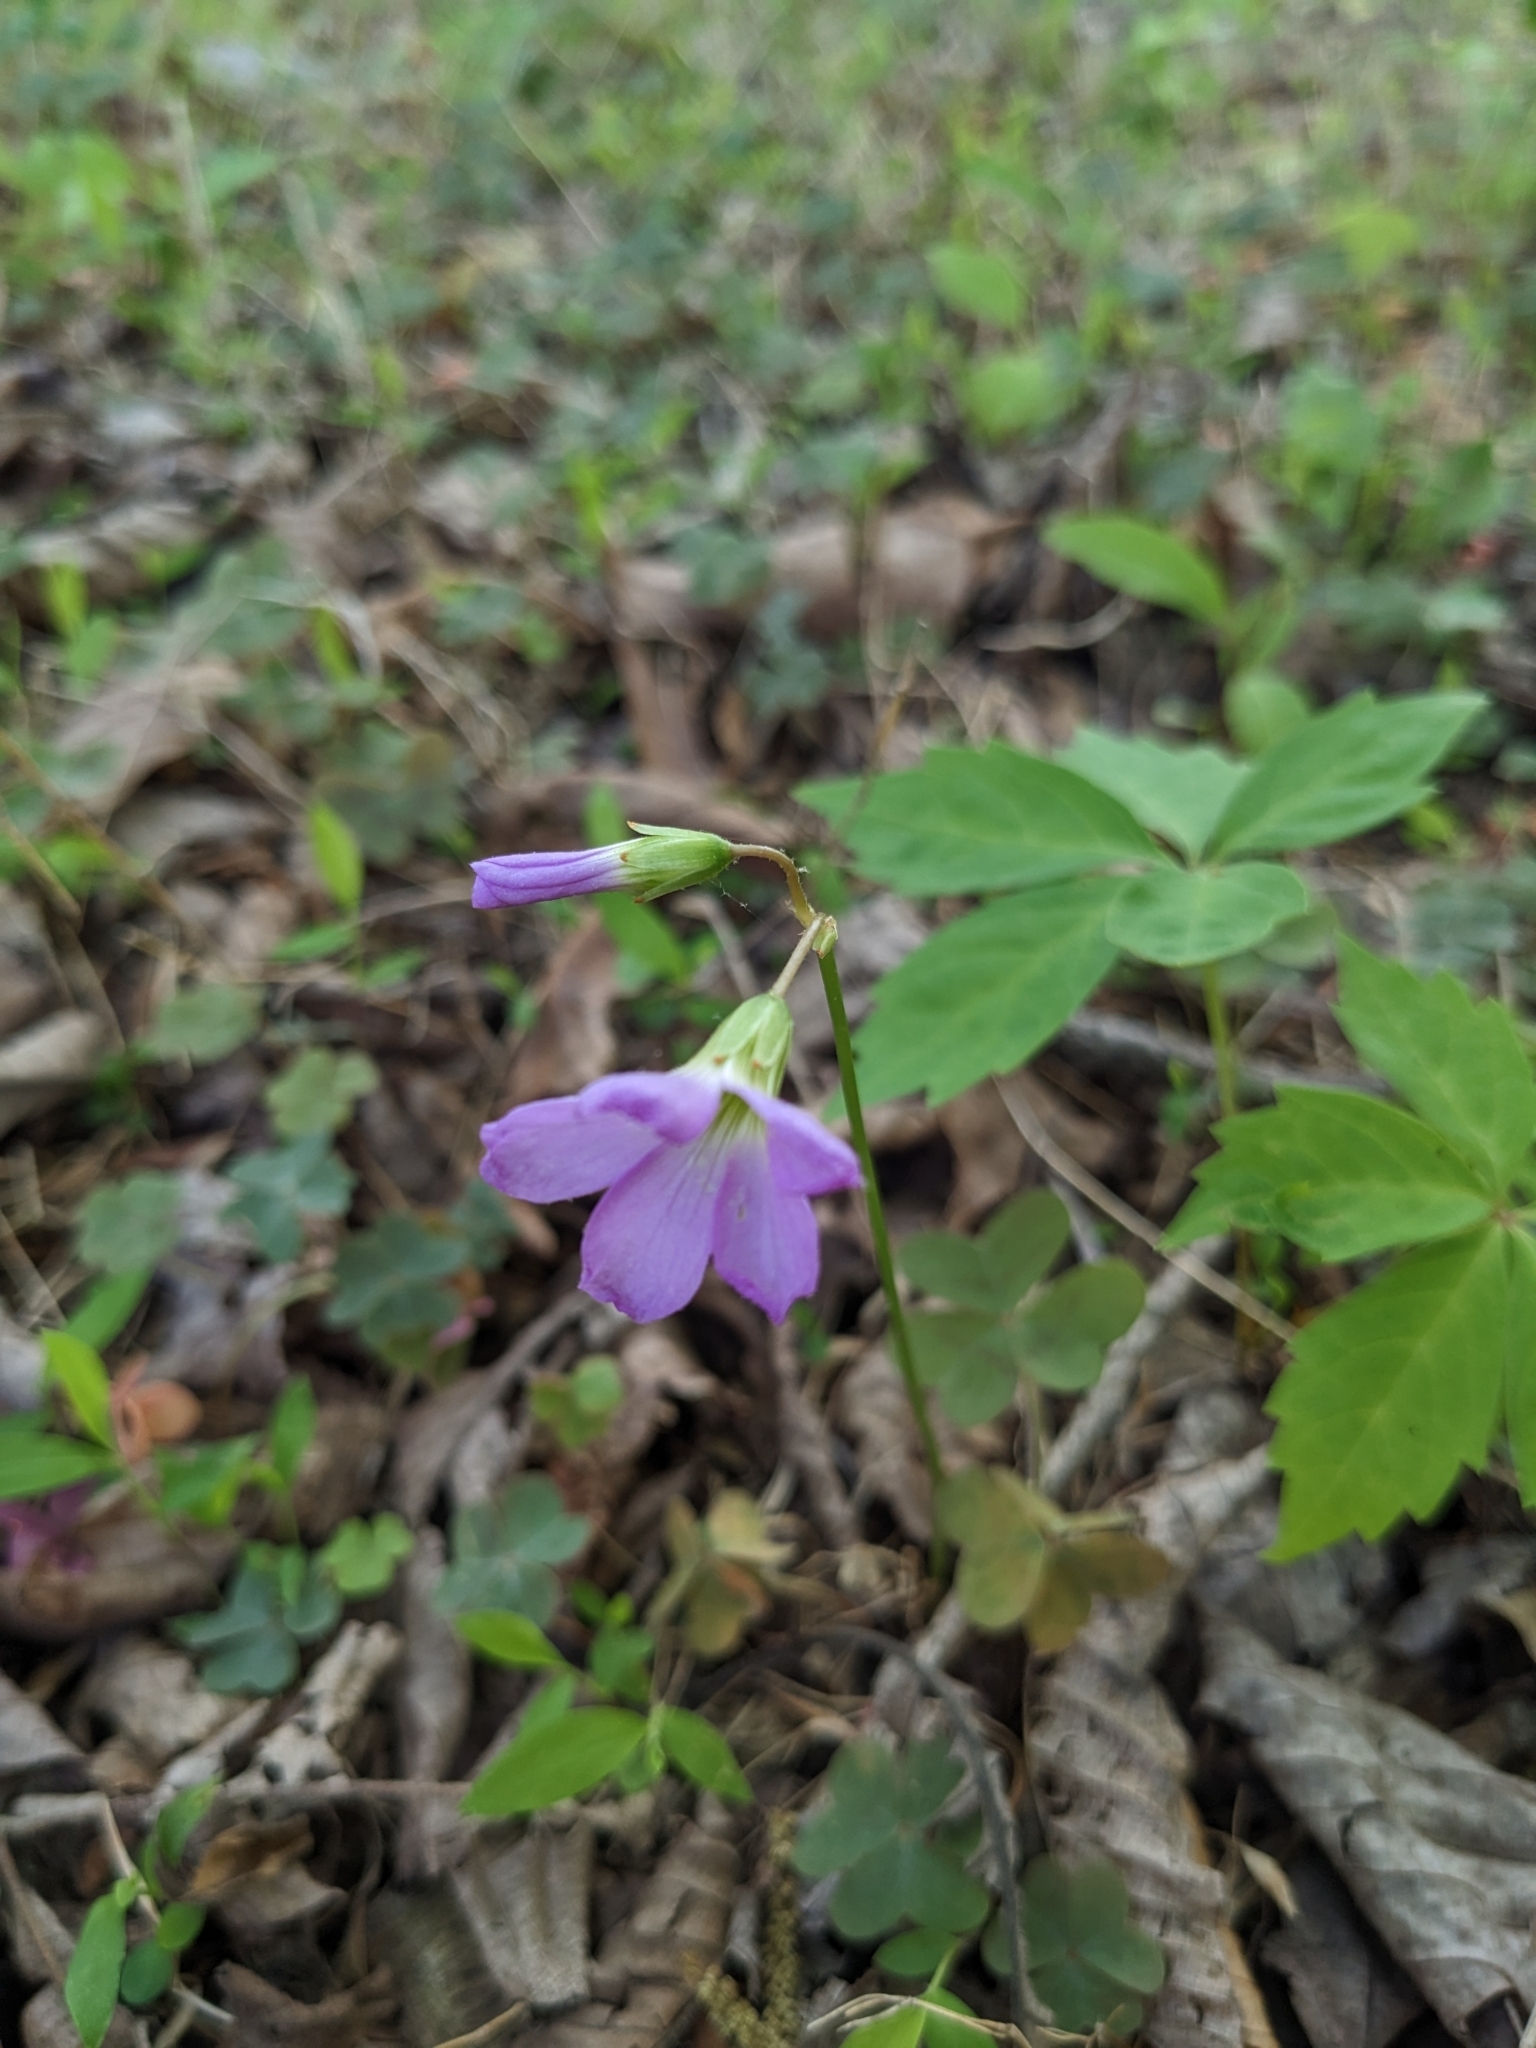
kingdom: Plantae
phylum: Tracheophyta
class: Magnoliopsida
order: Oxalidales
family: Oxalidaceae
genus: Oxalis
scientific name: Oxalis violacea
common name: Violet wood-sorrel
